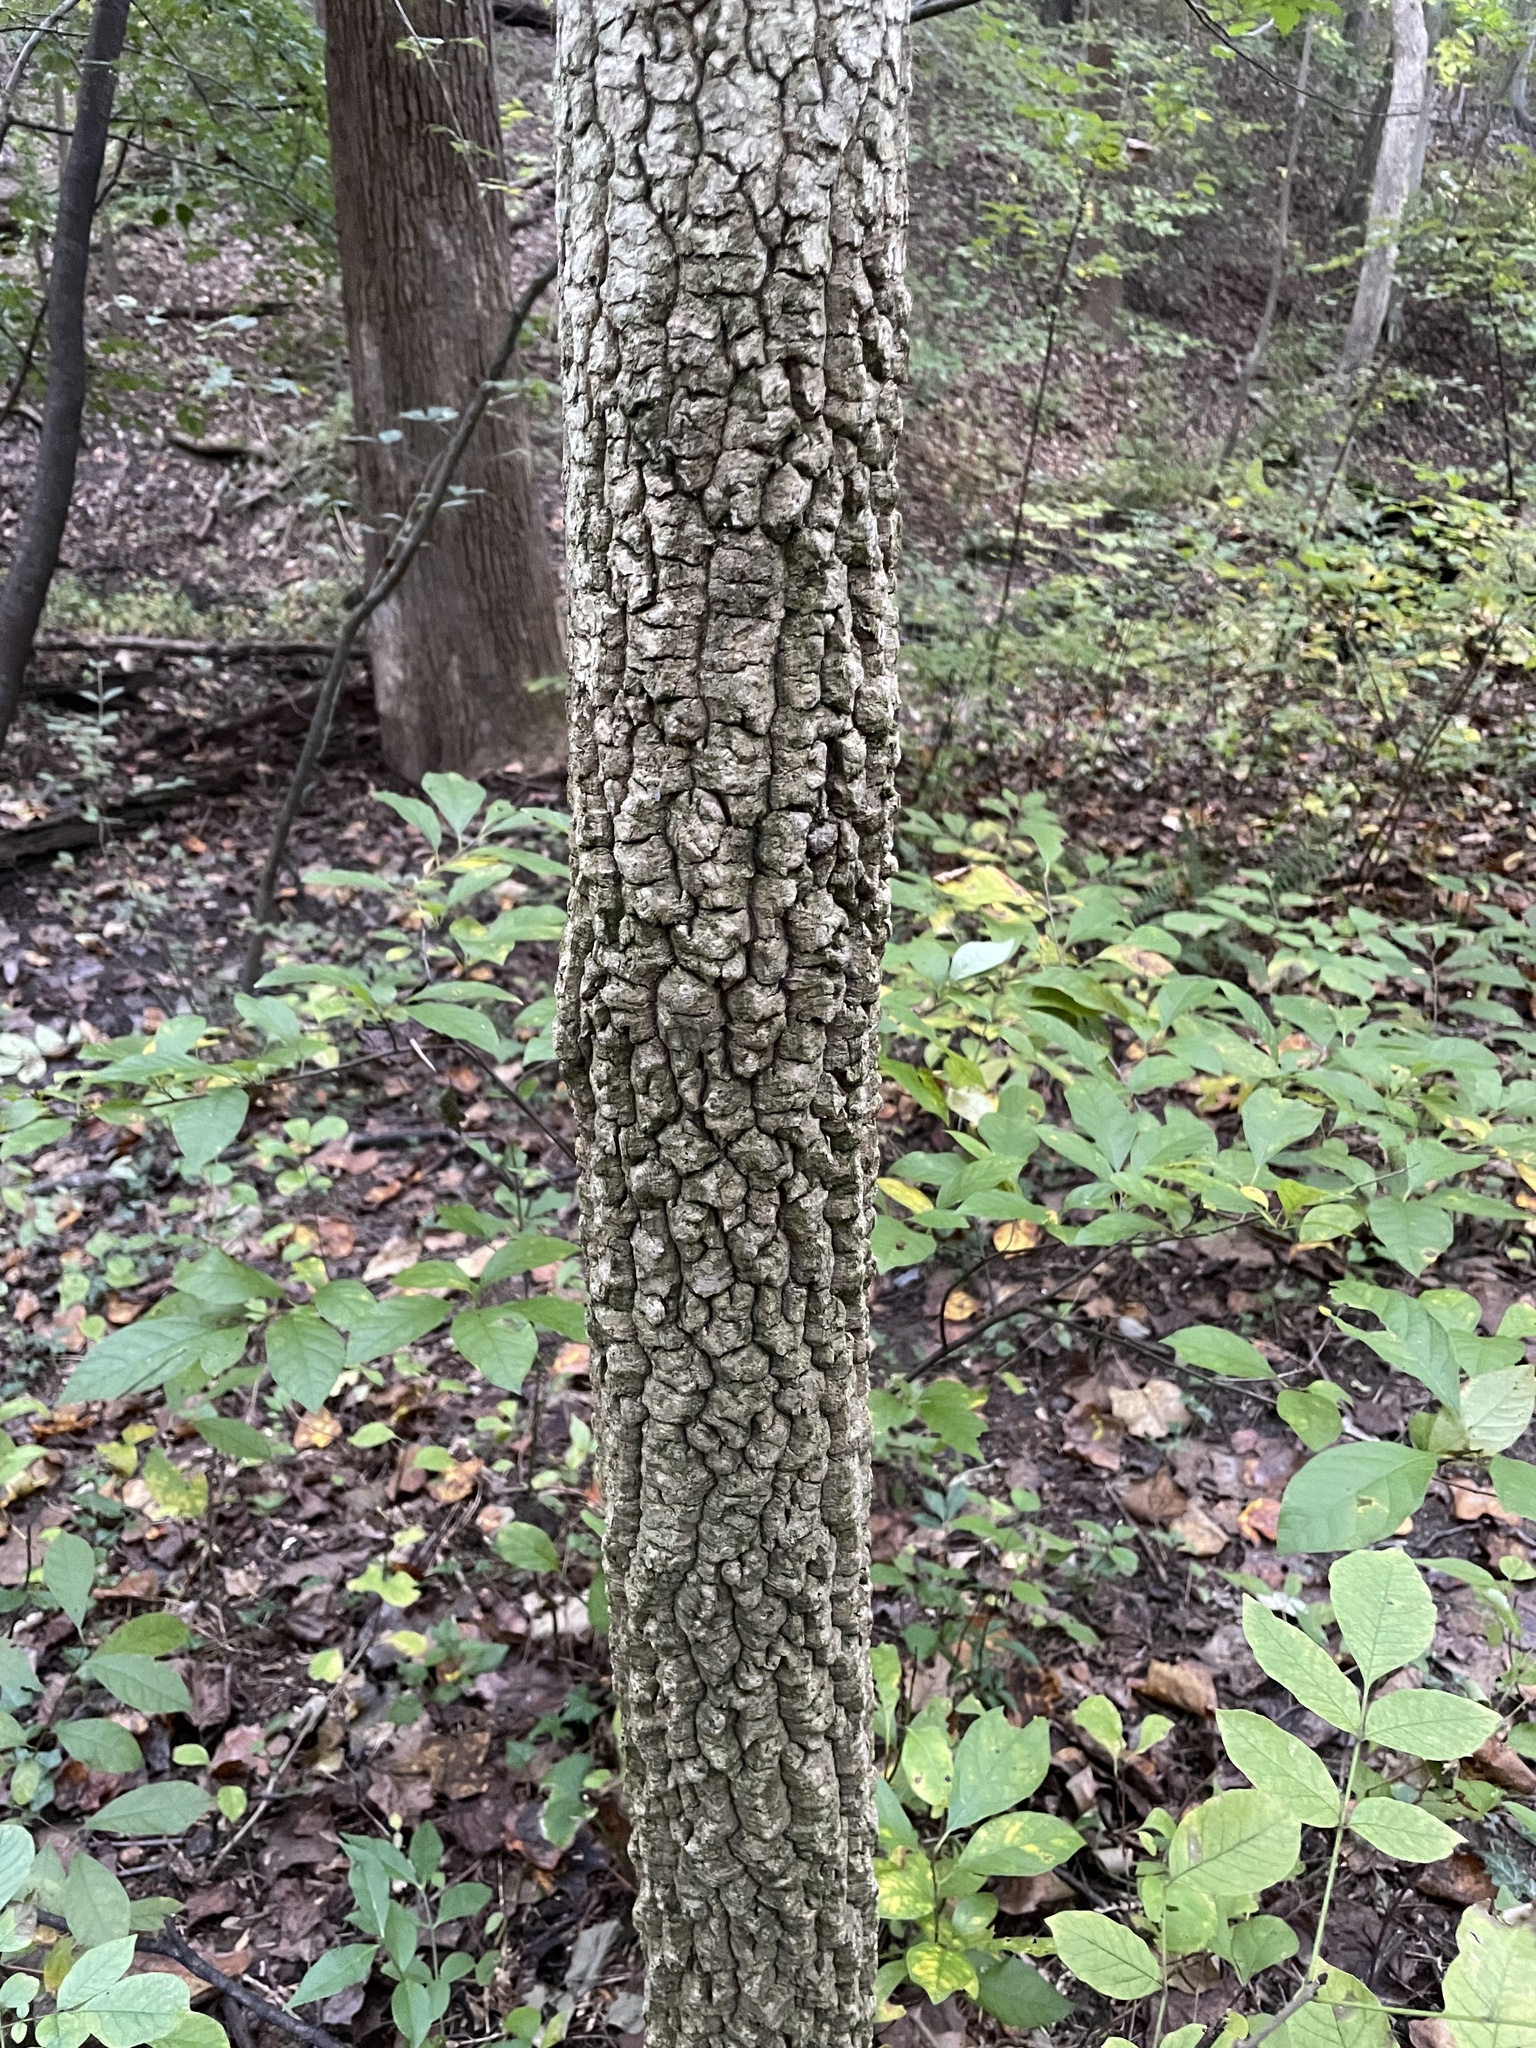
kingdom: Plantae
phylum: Tracheophyta
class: Magnoliopsida
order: Ericales
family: Ebenaceae
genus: Diospyros
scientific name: Diospyros virginiana
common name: Persimmon
